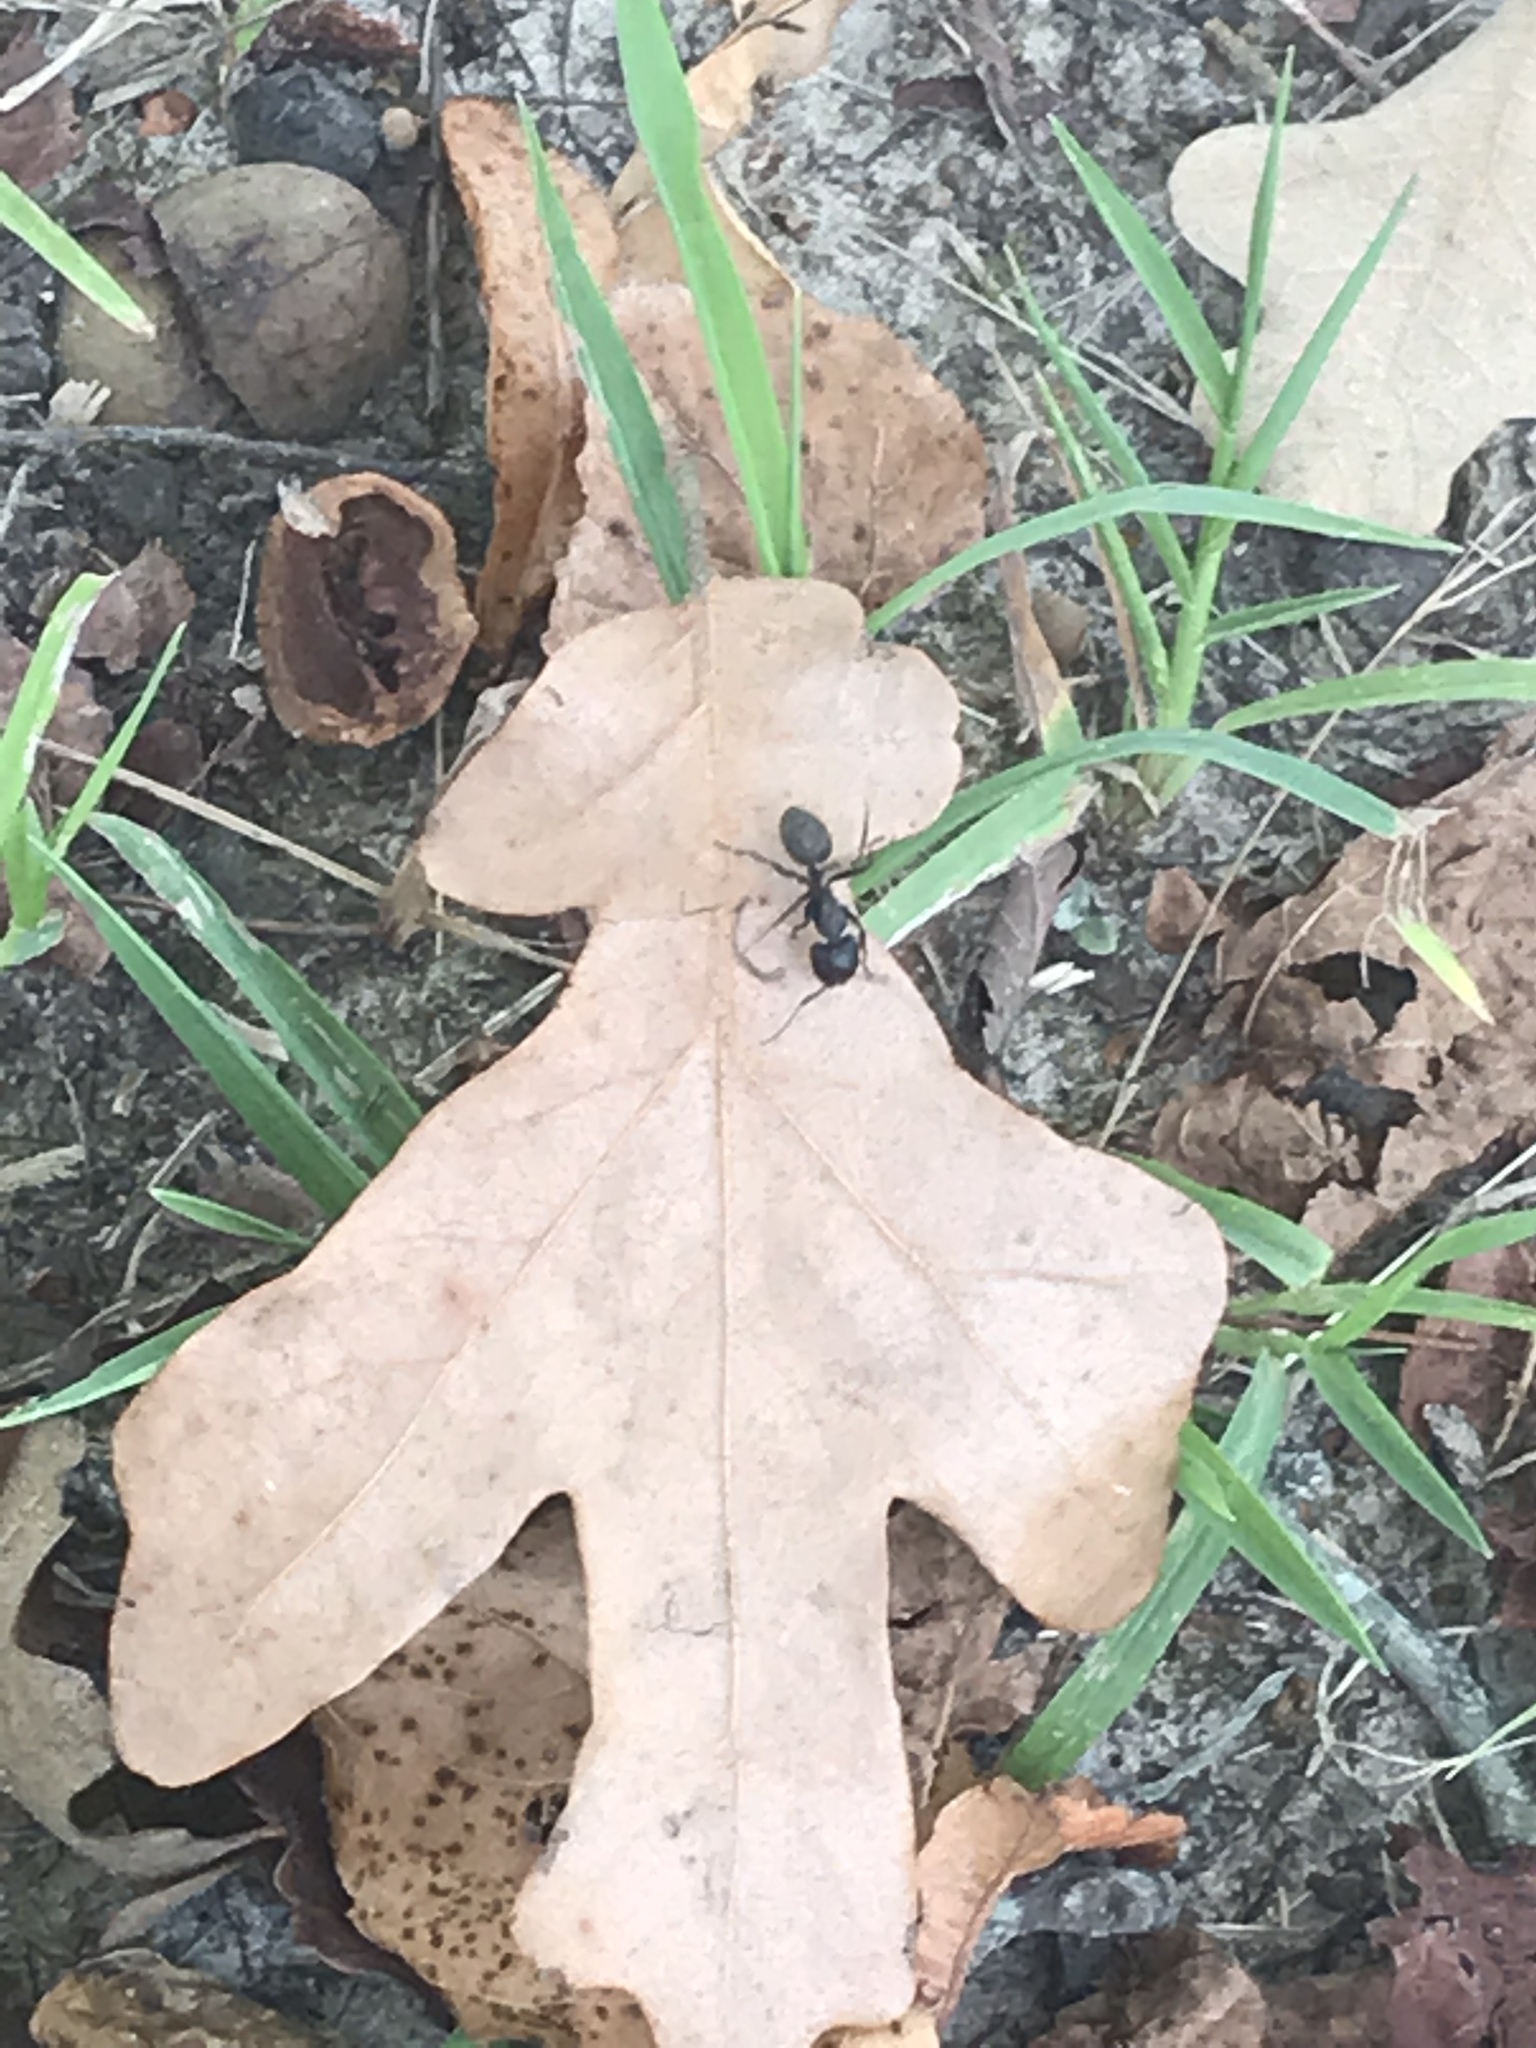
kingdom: Animalia
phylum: Arthropoda
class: Insecta
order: Hymenoptera
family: Formicidae
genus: Camponotus
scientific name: Camponotus pennsylvanicus
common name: Black carpenter ant
